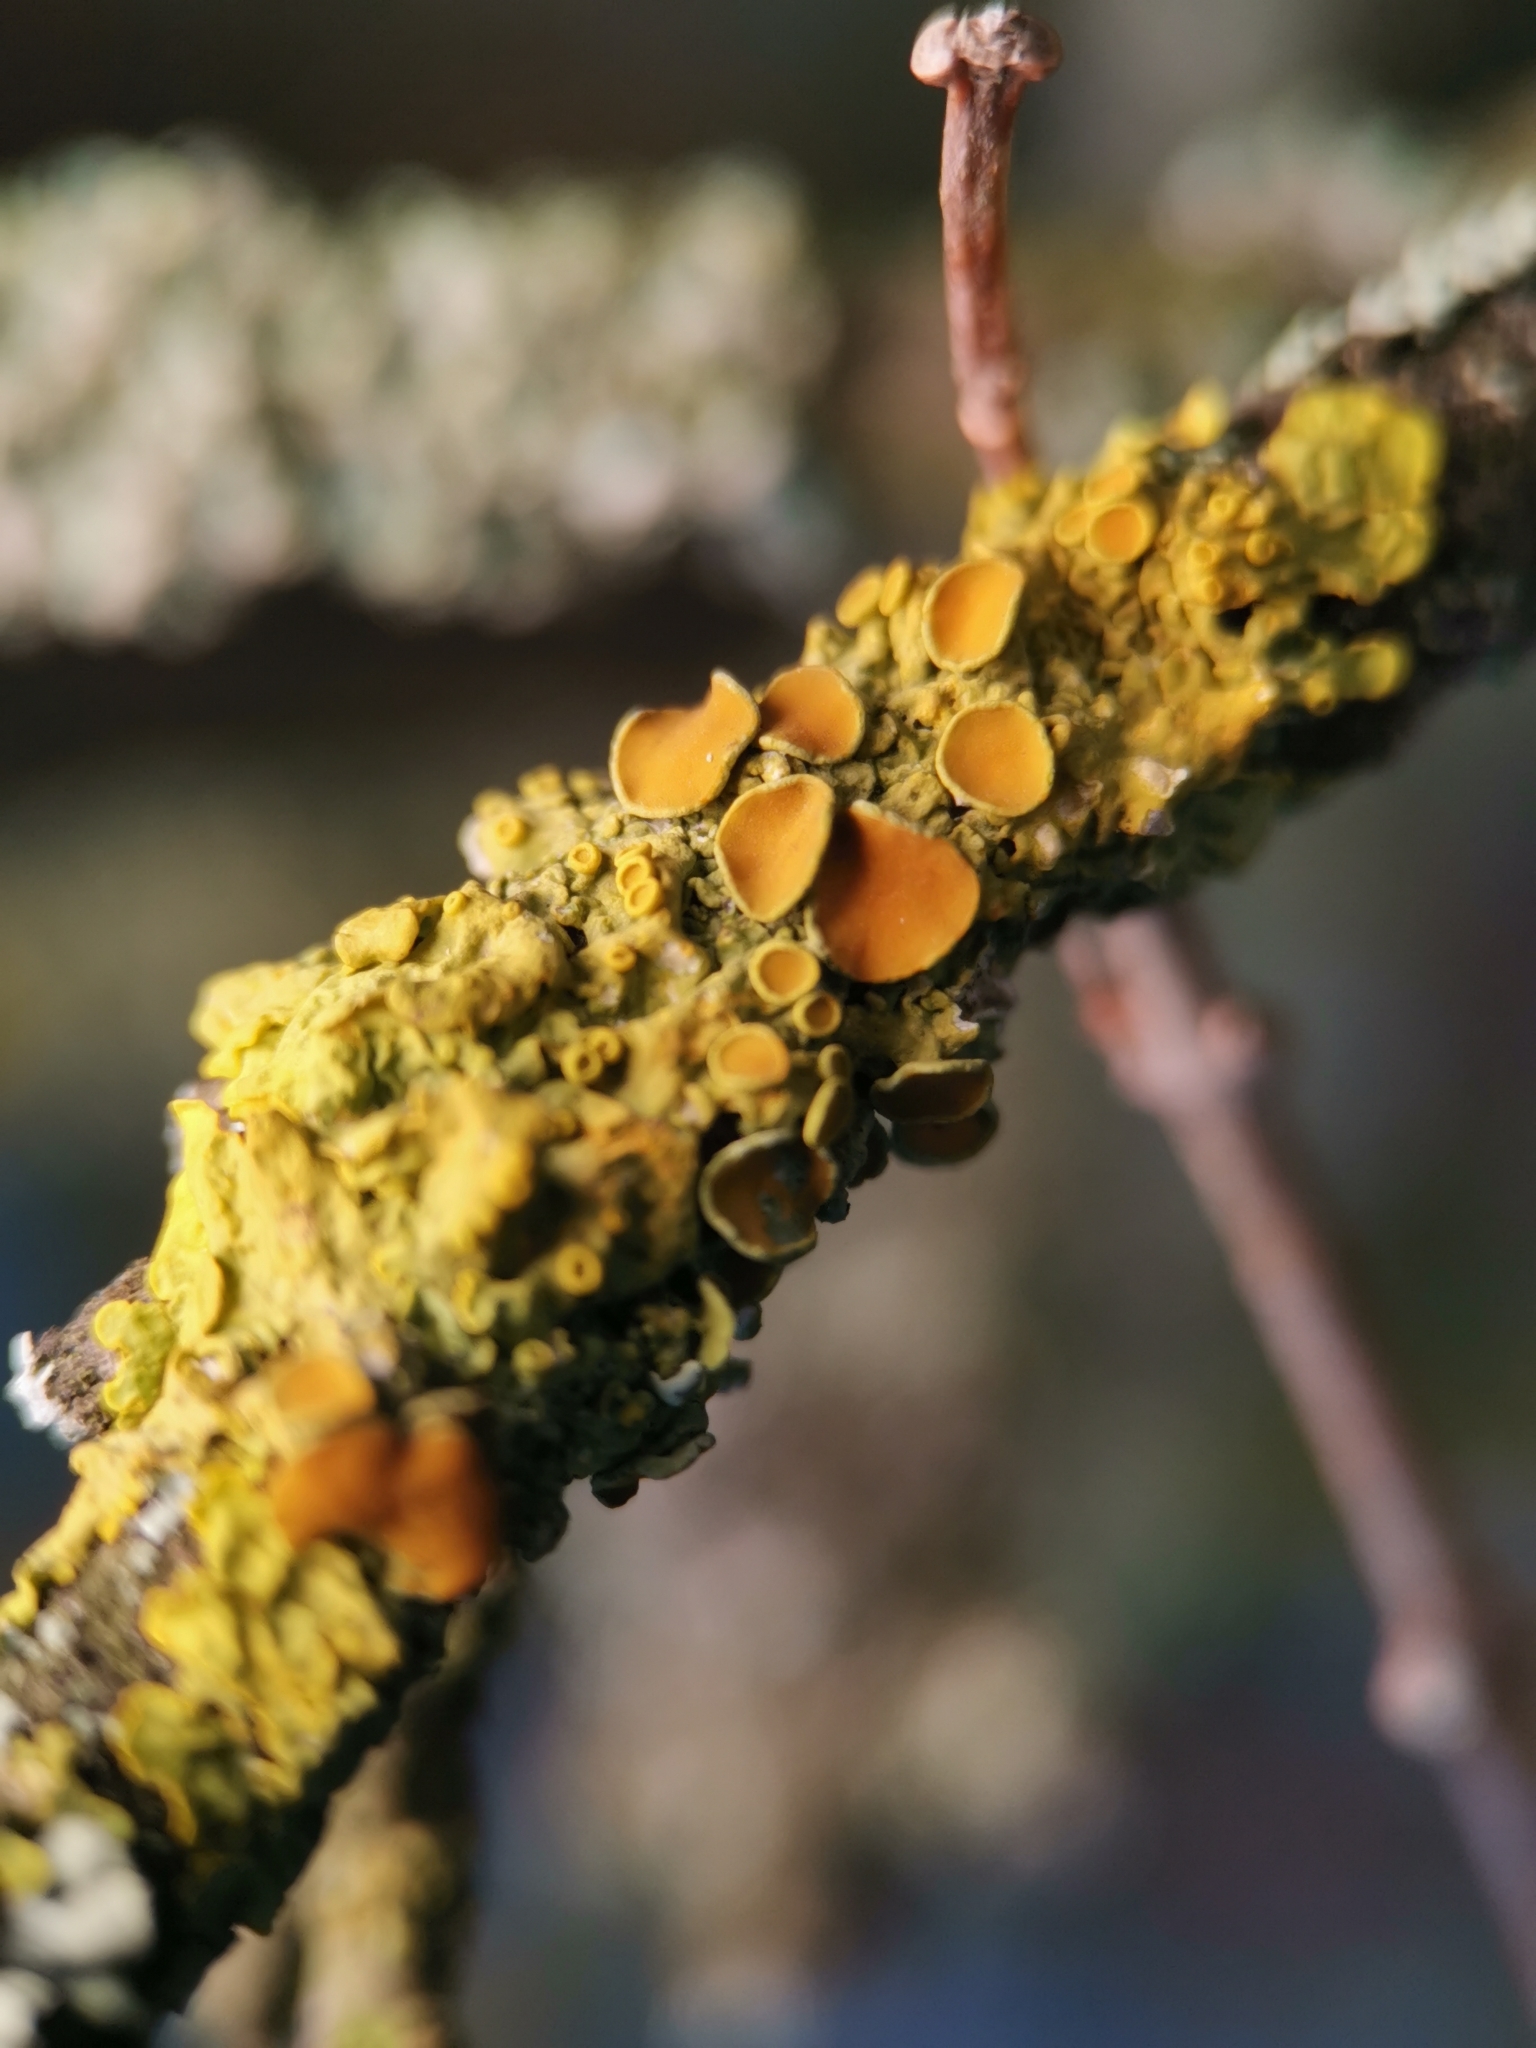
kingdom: Fungi
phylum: Ascomycota
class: Lecanoromycetes
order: Teloschistales
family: Teloschistaceae
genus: Xanthoria
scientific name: Xanthoria parietina
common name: Common orange lichen
